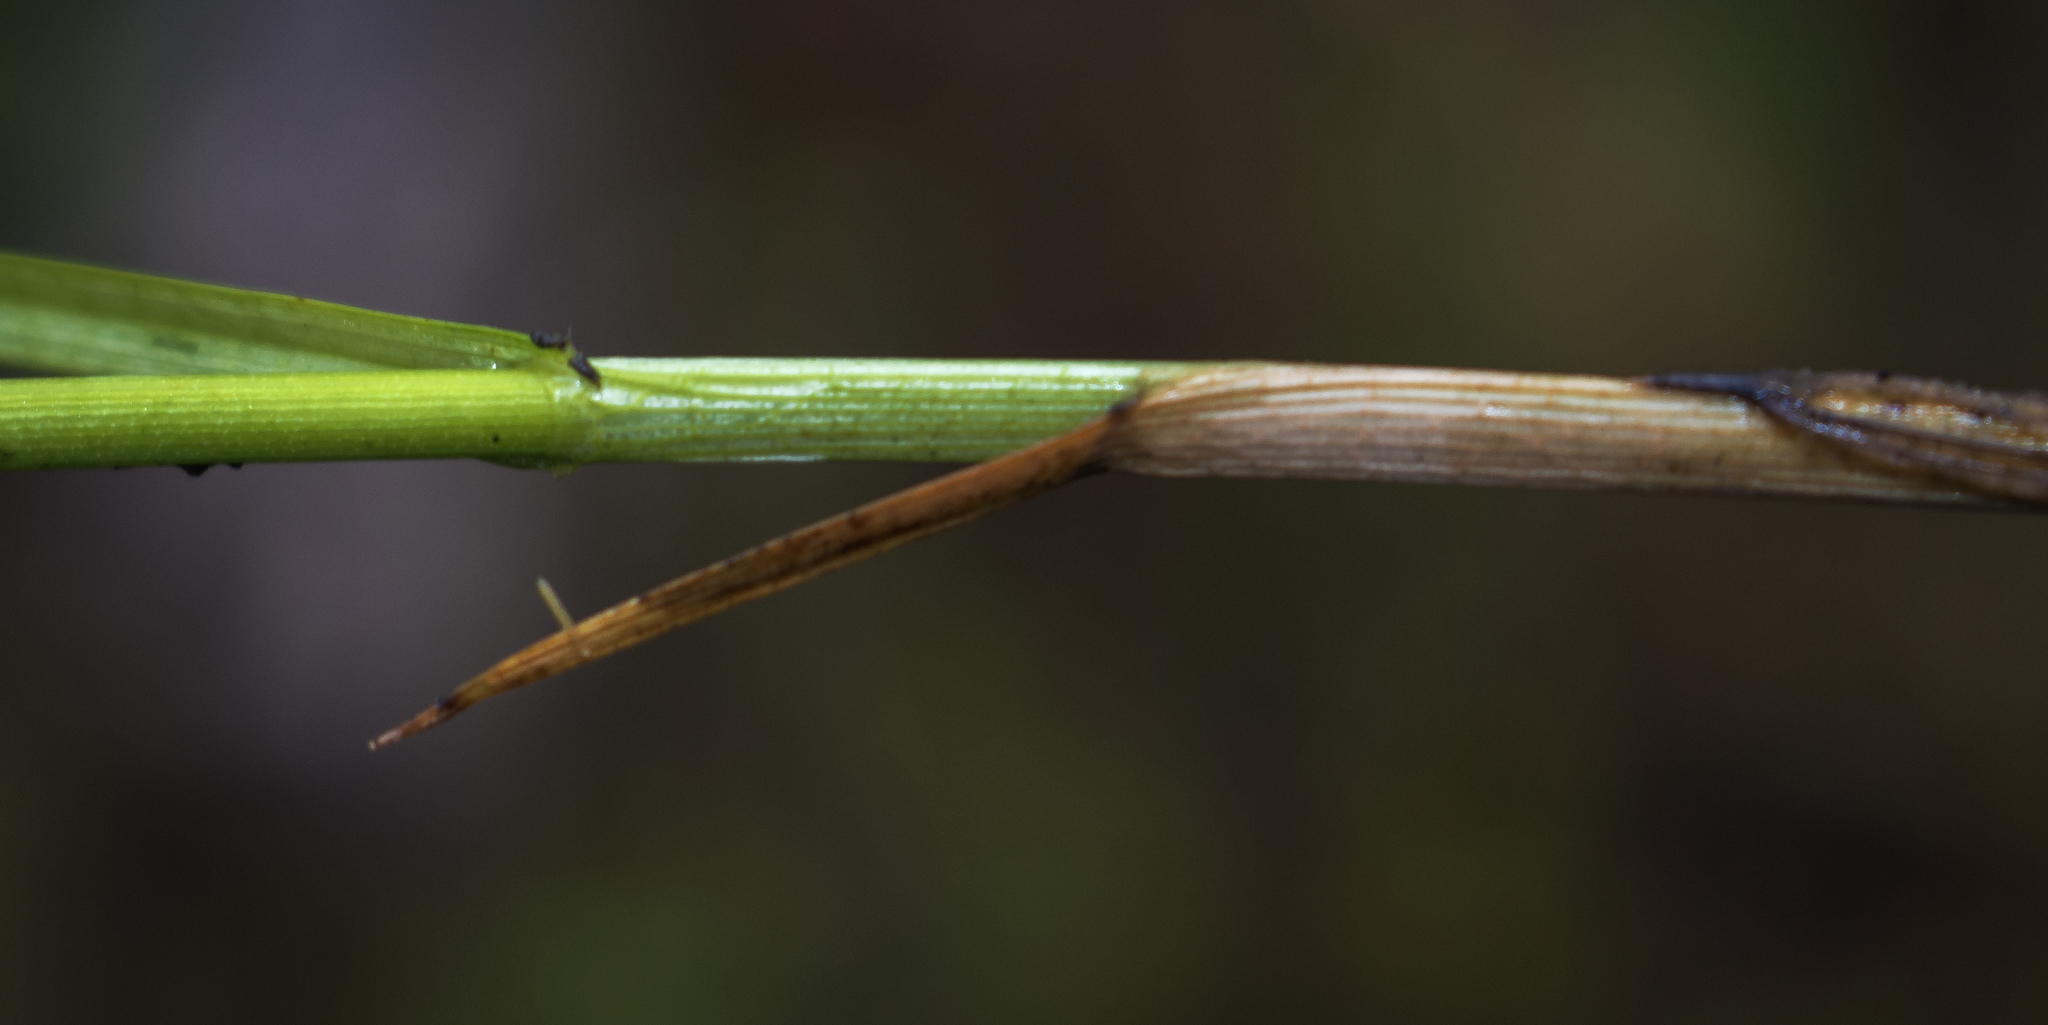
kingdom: Plantae
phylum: Tracheophyta
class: Liliopsida
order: Poales
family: Cyperaceae
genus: Carex
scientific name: Carex sartwellii
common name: Sartwell's sedge
